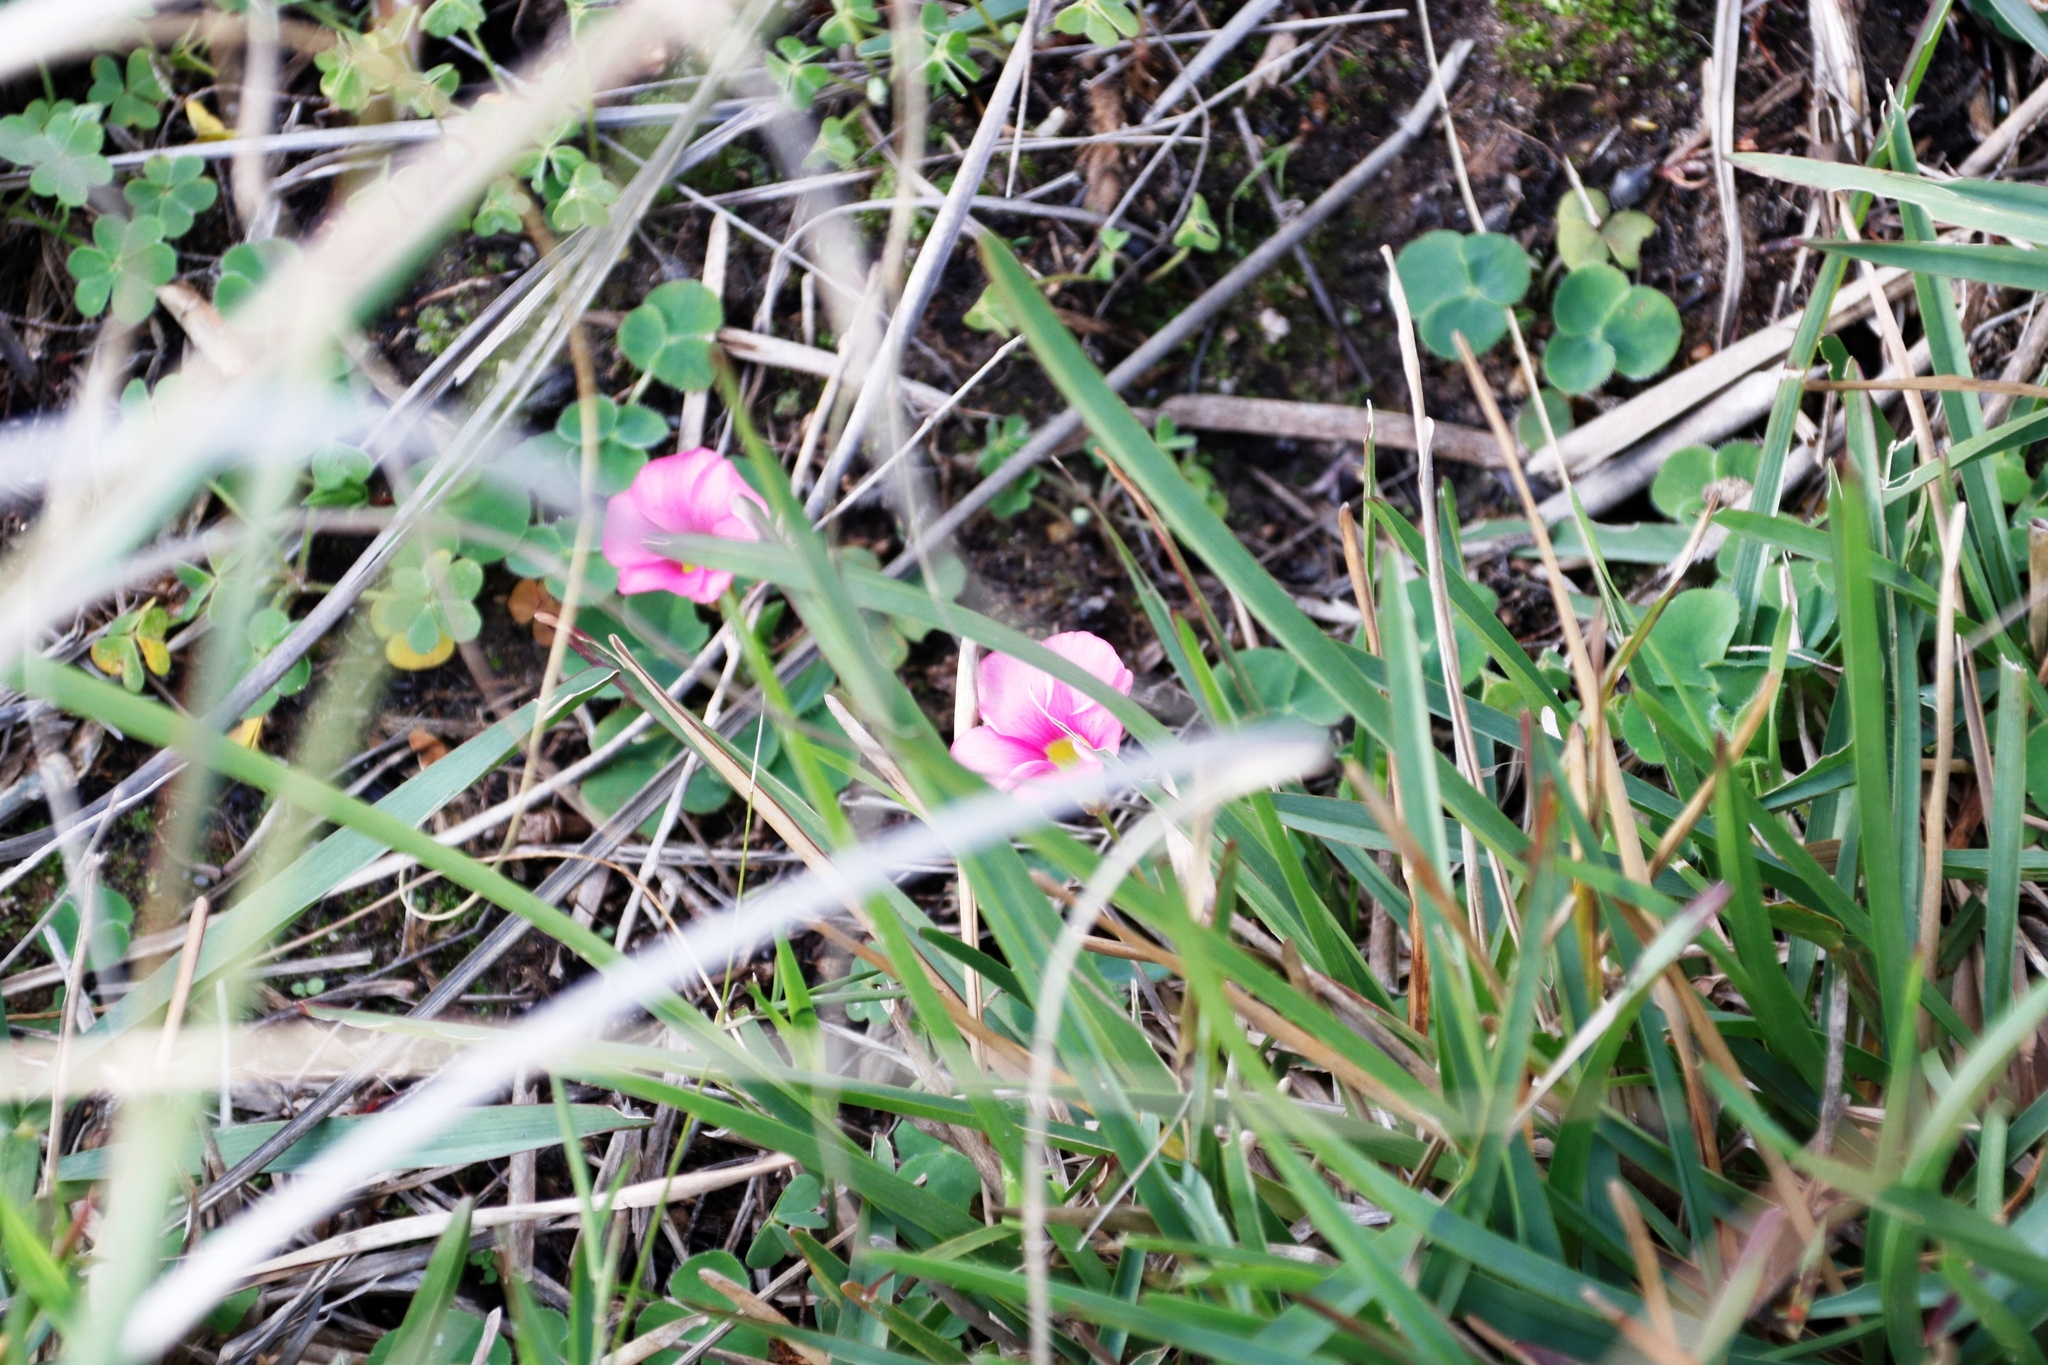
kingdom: Plantae
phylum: Tracheophyta
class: Magnoliopsida
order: Oxalidales
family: Oxalidaceae
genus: Oxalis
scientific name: Oxalis purpurea
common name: Purple woodsorrel
